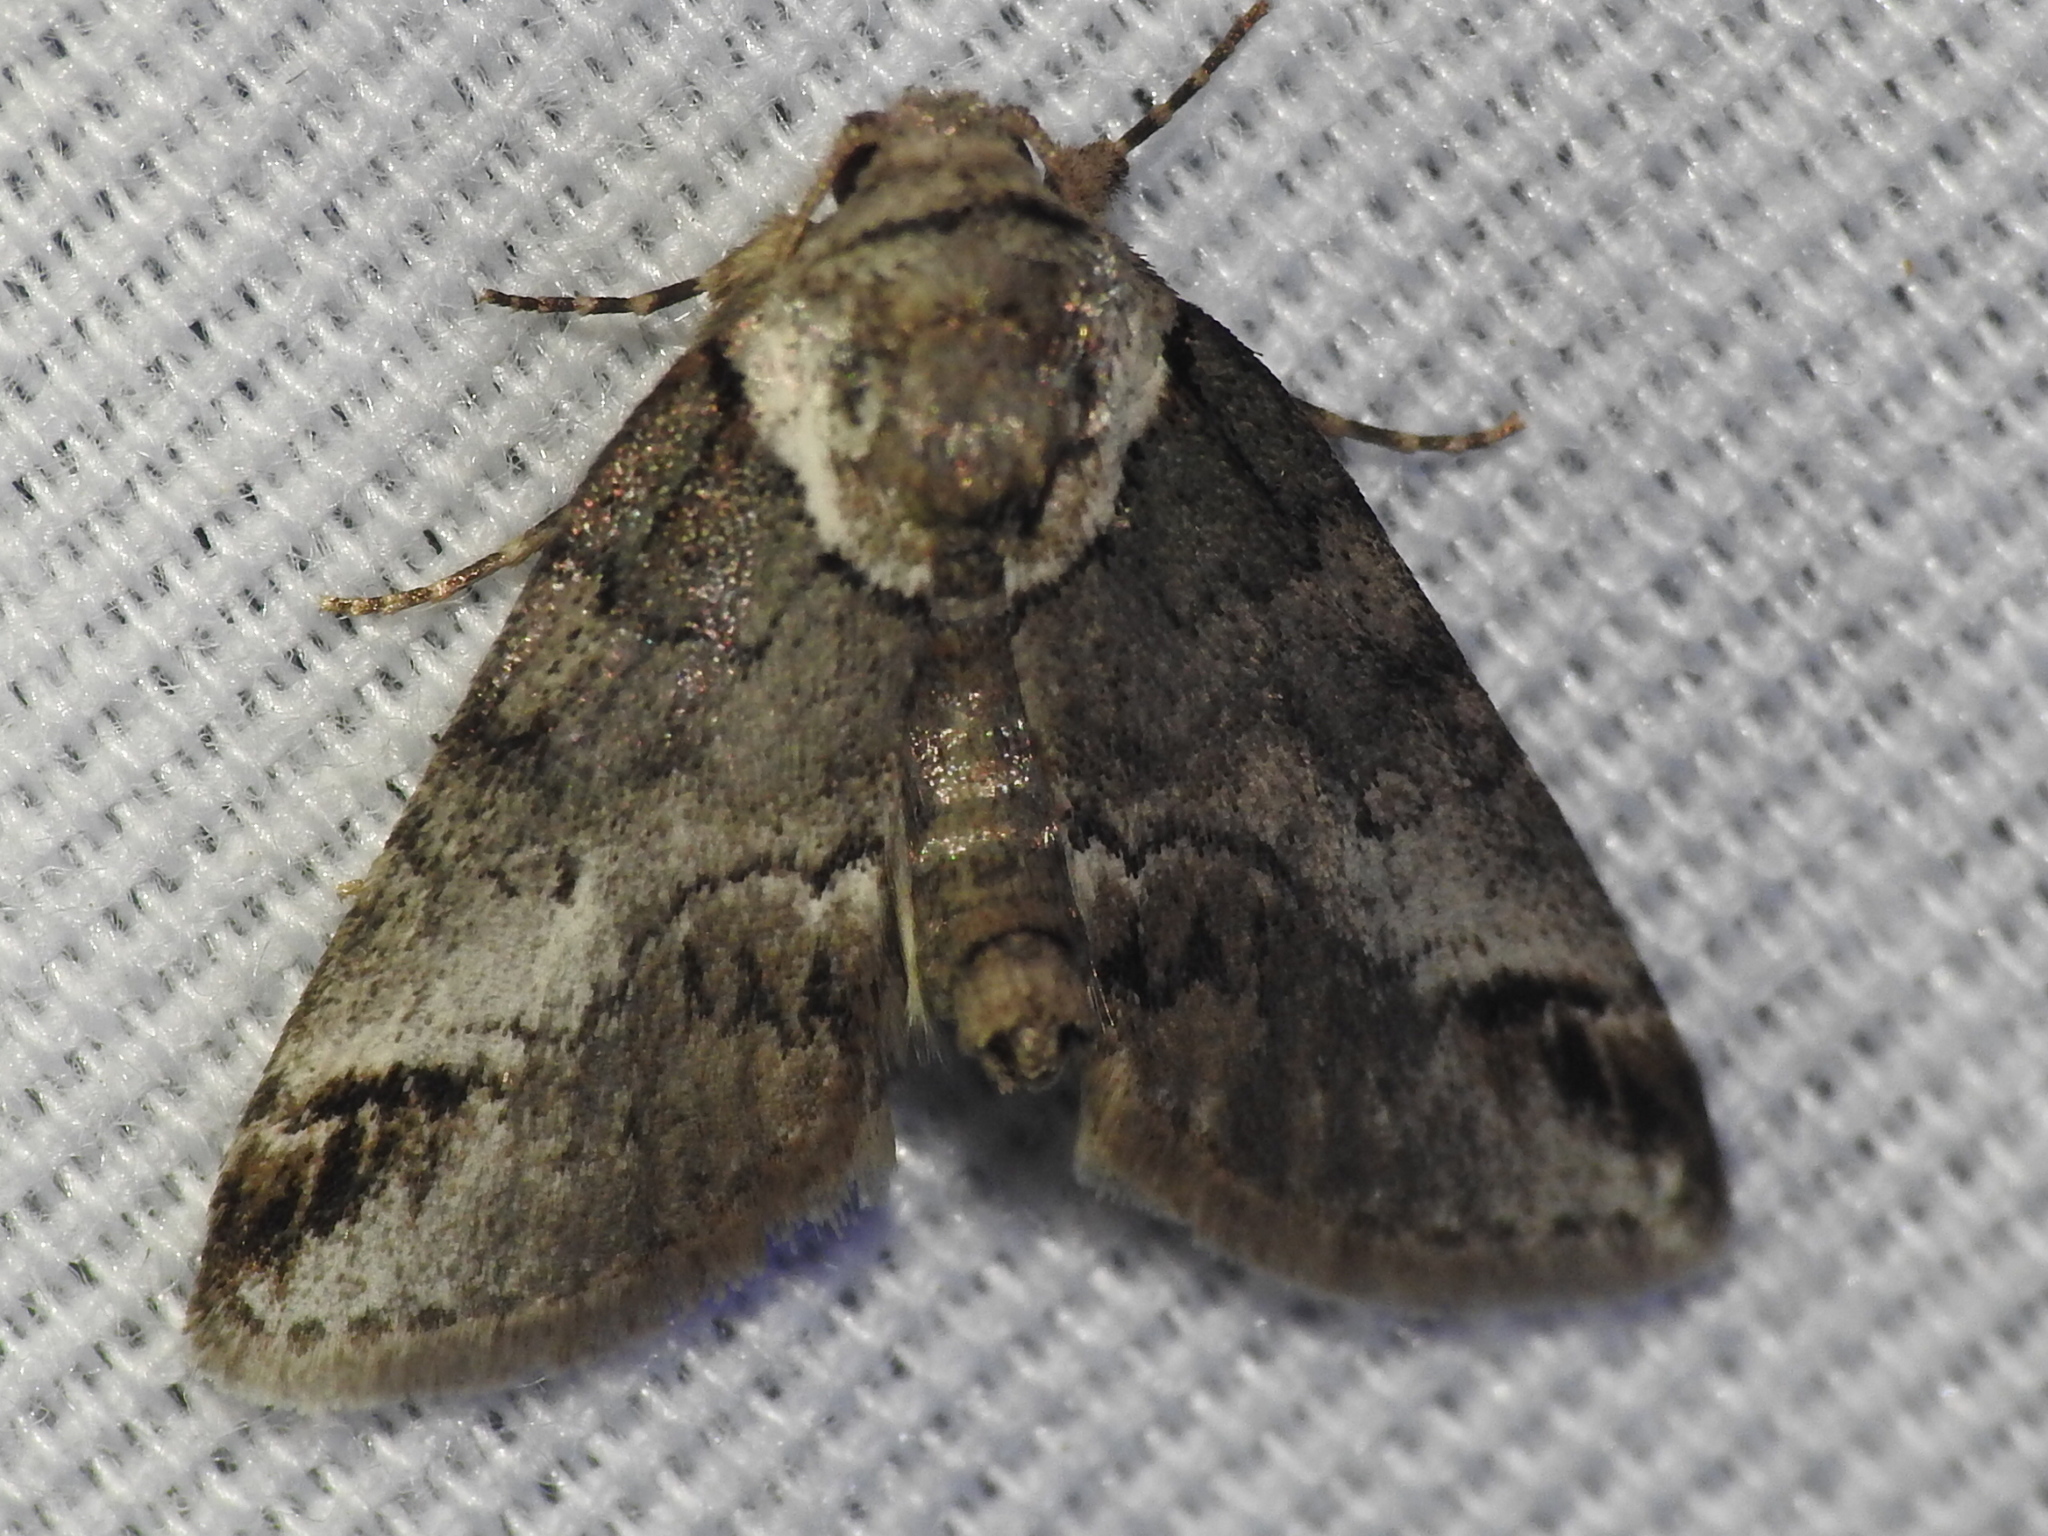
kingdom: Animalia
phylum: Arthropoda
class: Insecta
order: Lepidoptera
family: Nolidae
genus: Baileya
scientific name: Baileya australis
